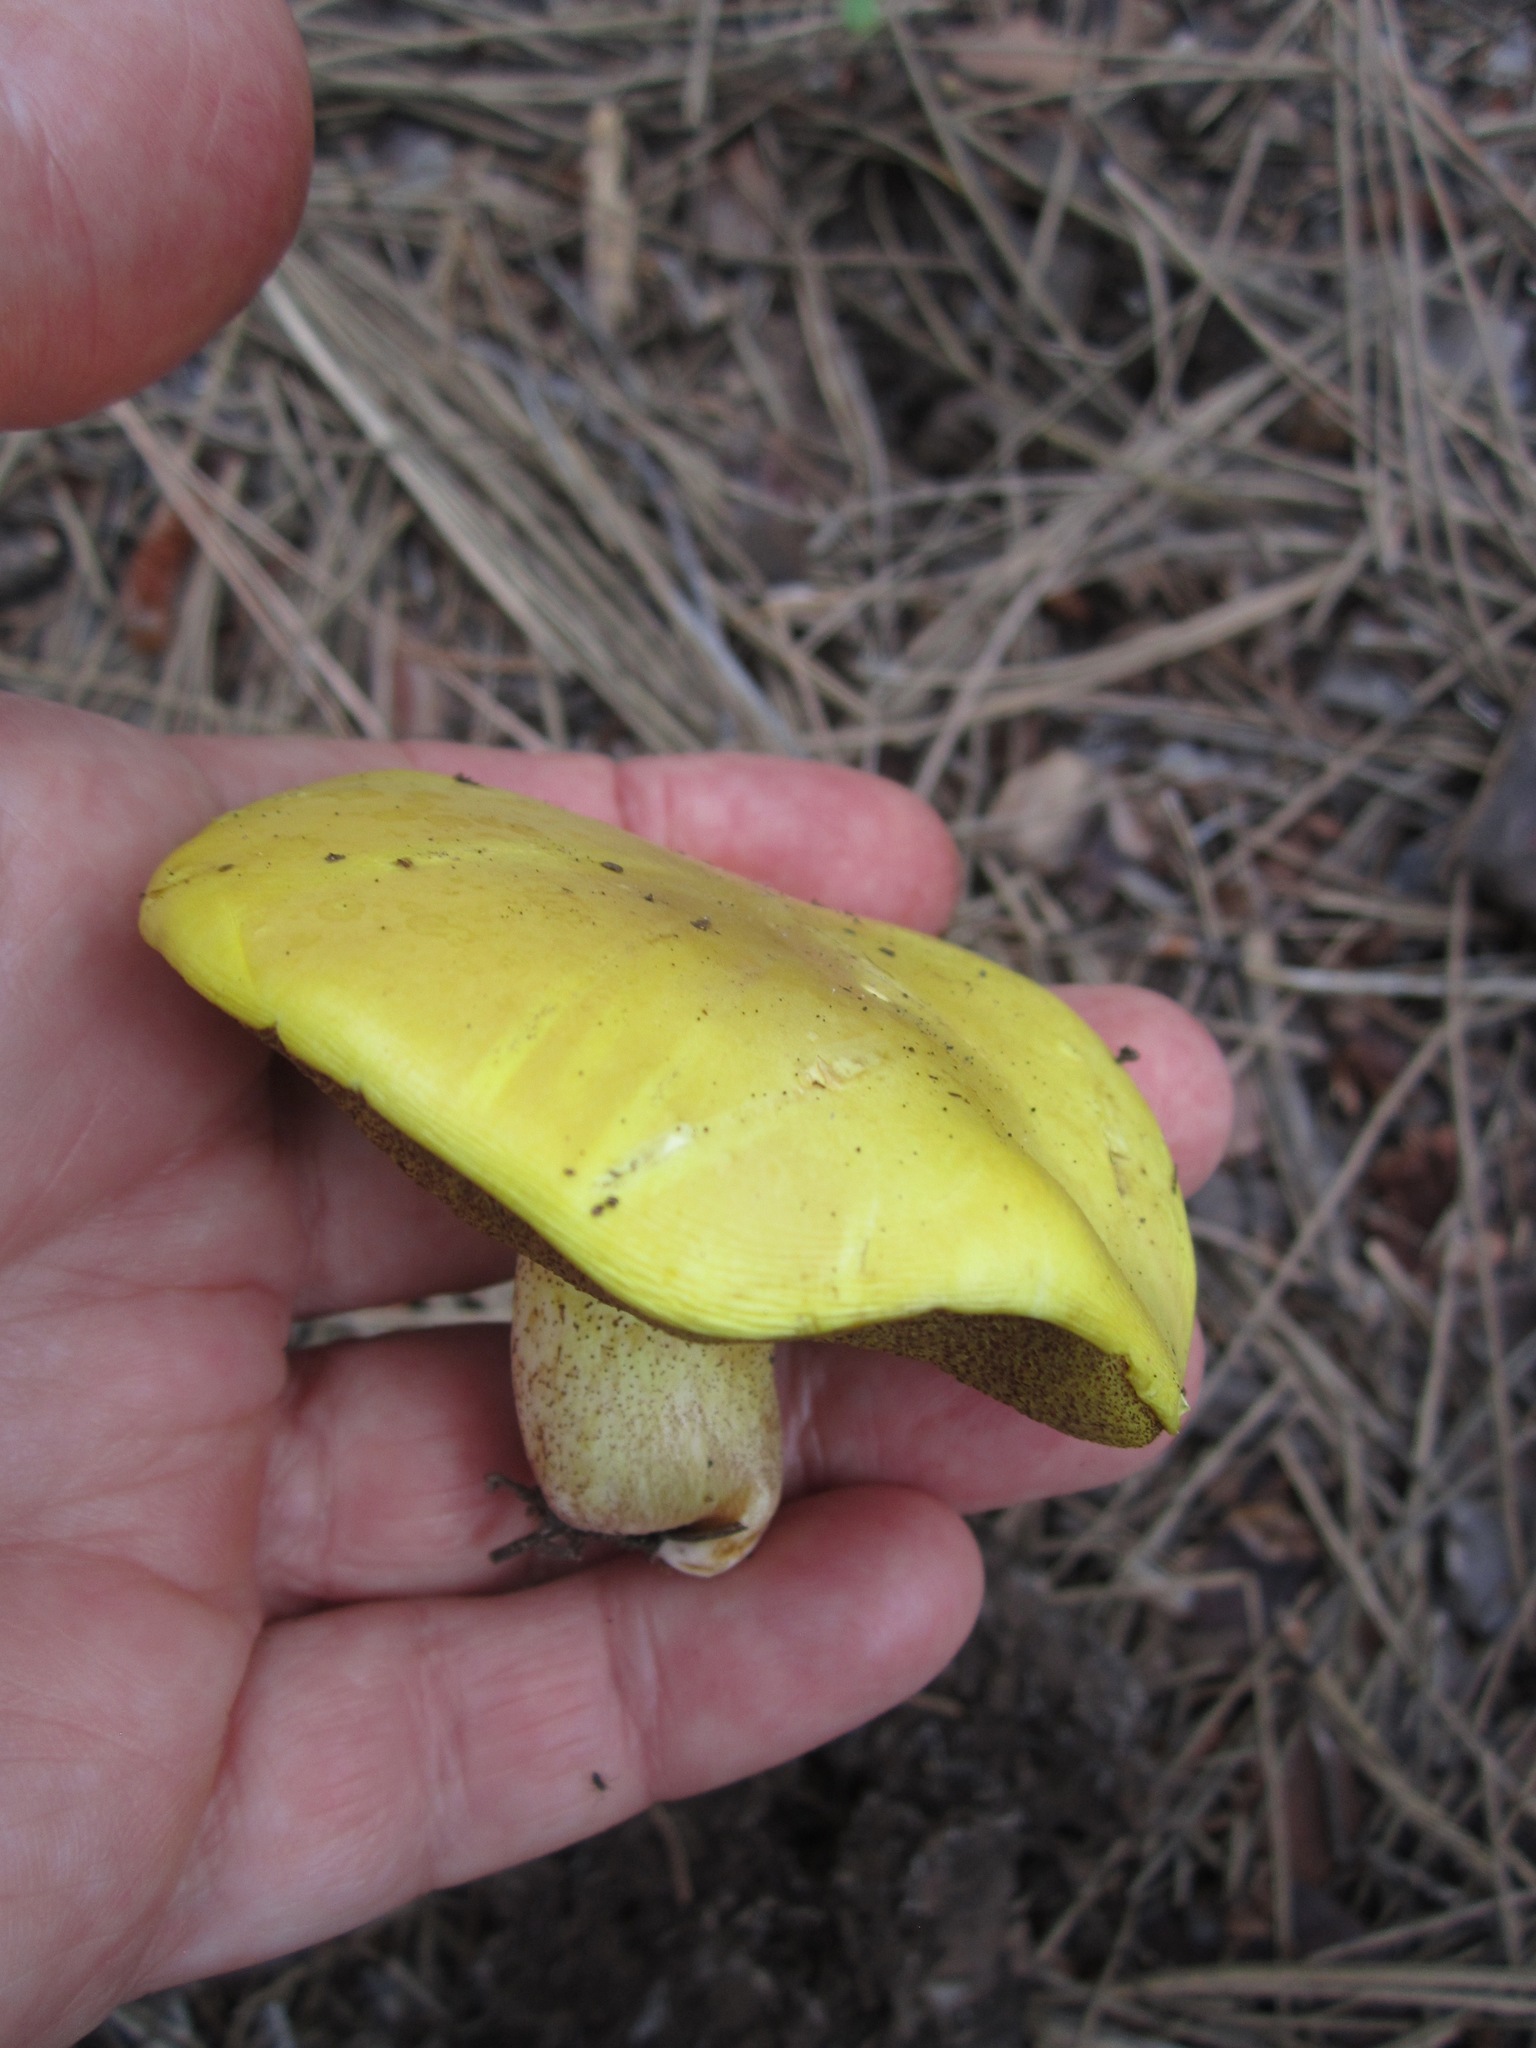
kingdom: Fungi
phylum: Basidiomycota
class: Agaricomycetes
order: Boletales
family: Suillaceae
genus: Suillus
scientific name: Suillus kaibabensis
